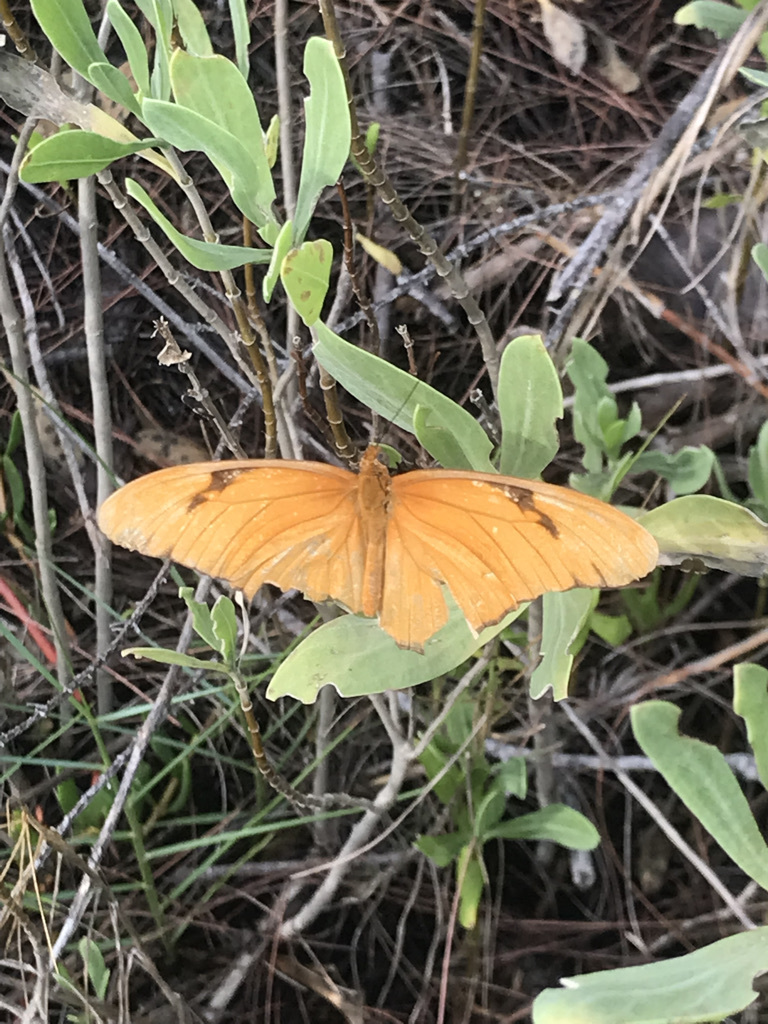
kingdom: Animalia
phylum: Arthropoda
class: Insecta
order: Lepidoptera
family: Nymphalidae
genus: Dryas
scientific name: Dryas iulia
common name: Flambeau
